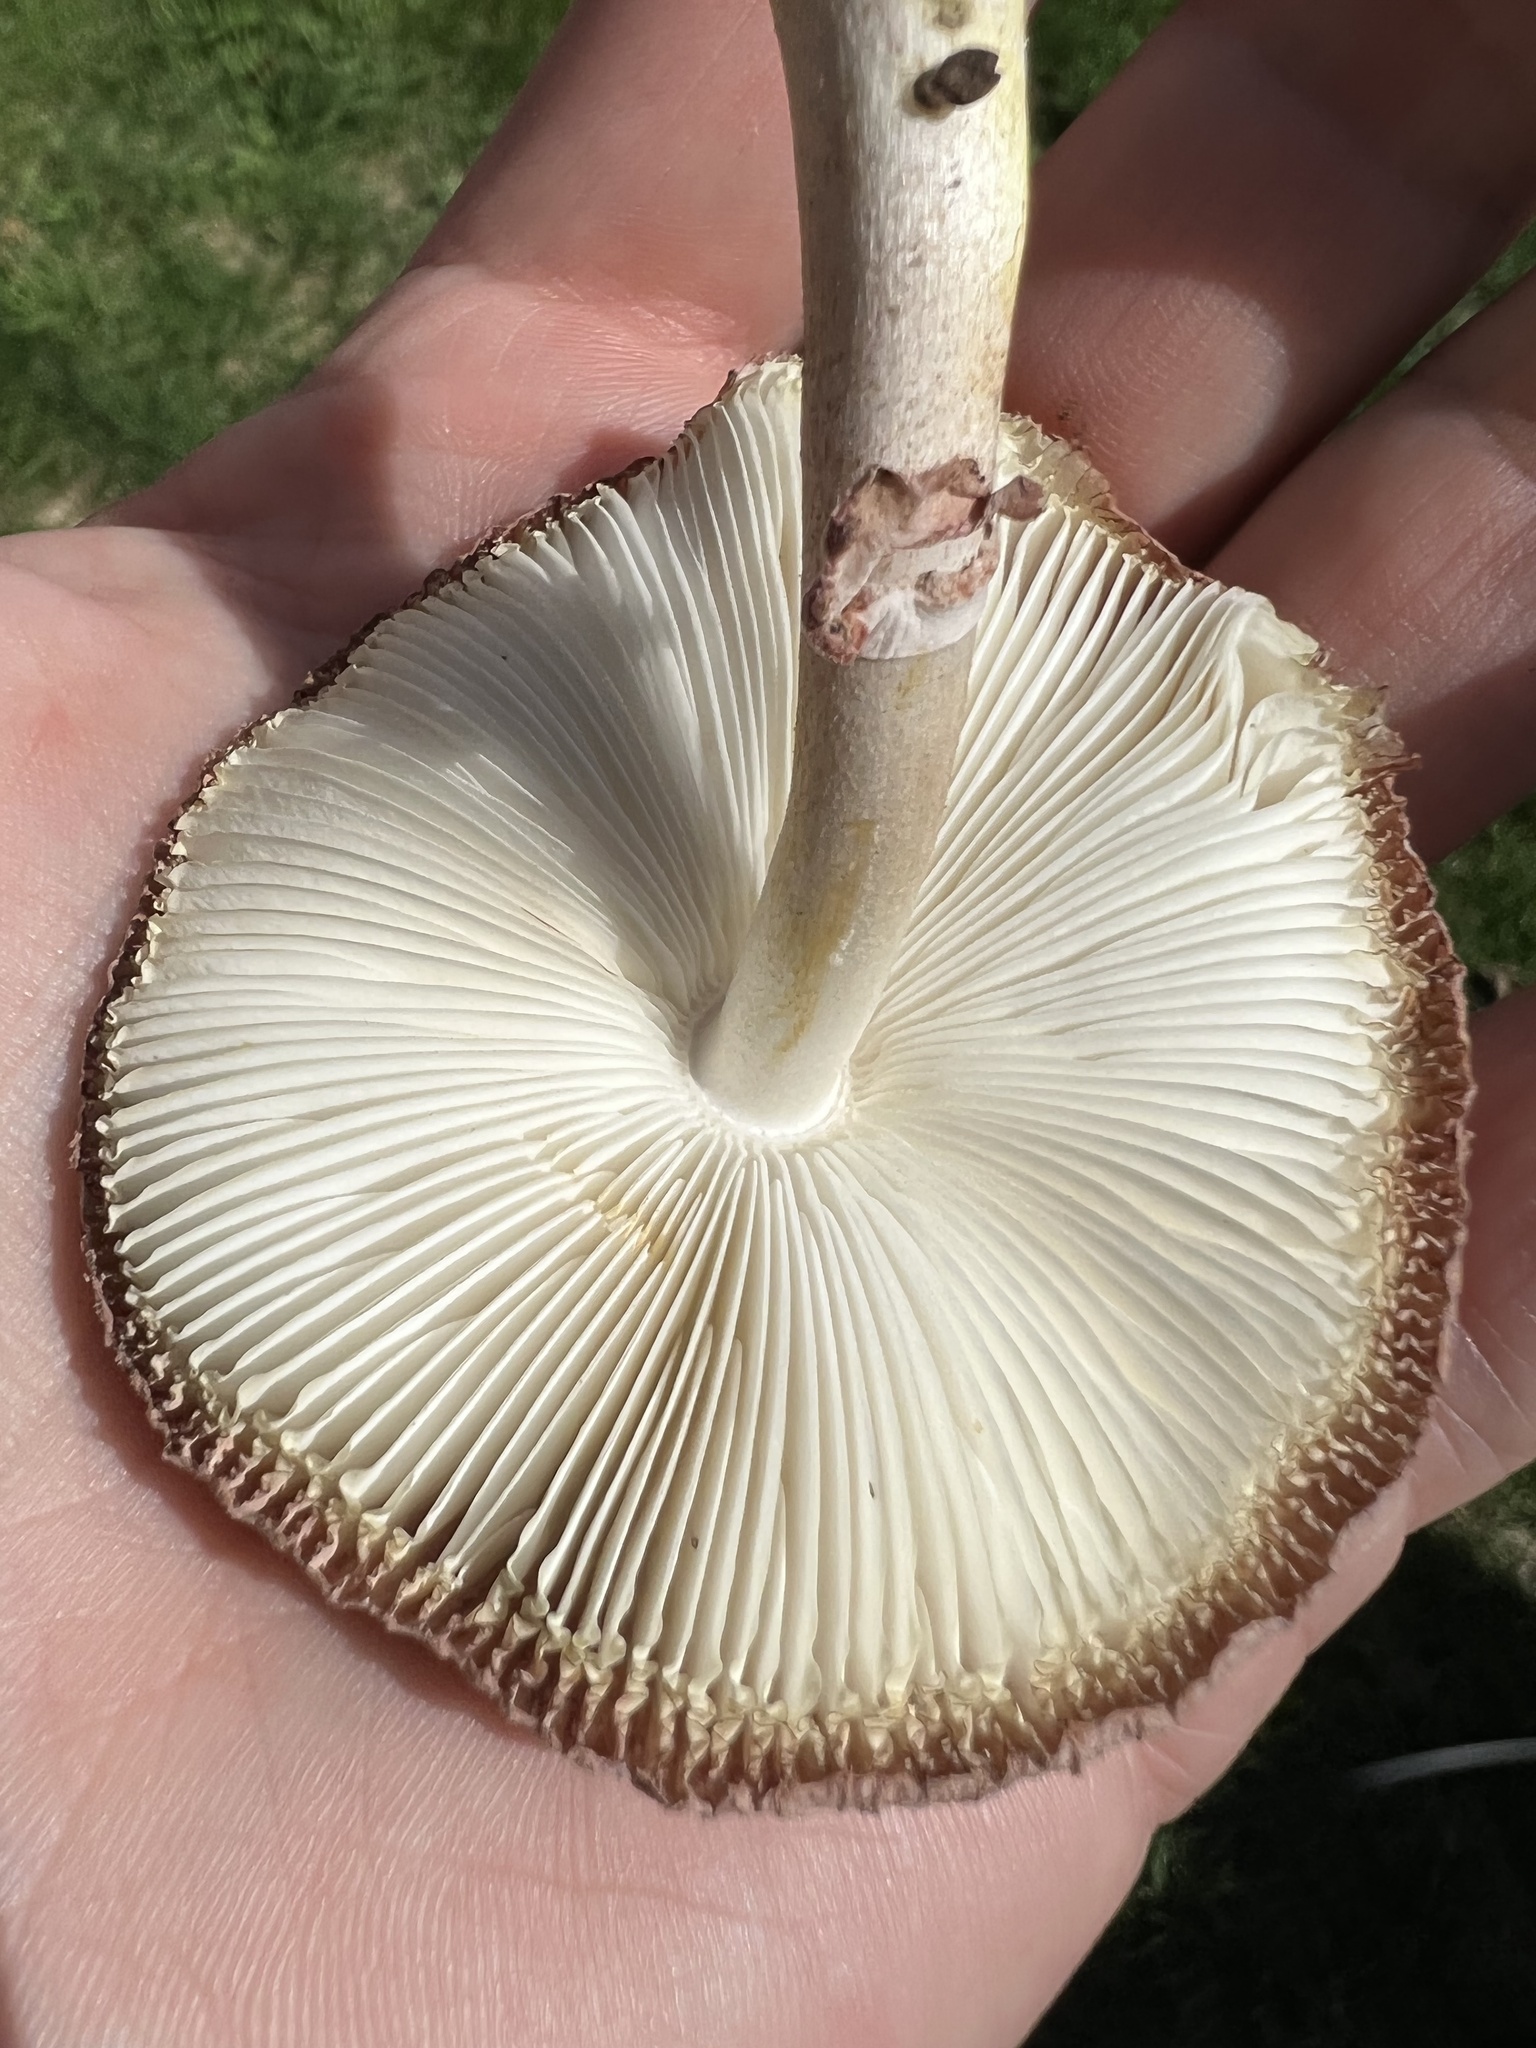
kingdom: Fungi
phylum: Basidiomycota
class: Agaricomycetes
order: Agaricales
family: Agaricaceae
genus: Leucoagaricus
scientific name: Leucoagaricus americanus
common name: Reddening lepiota
